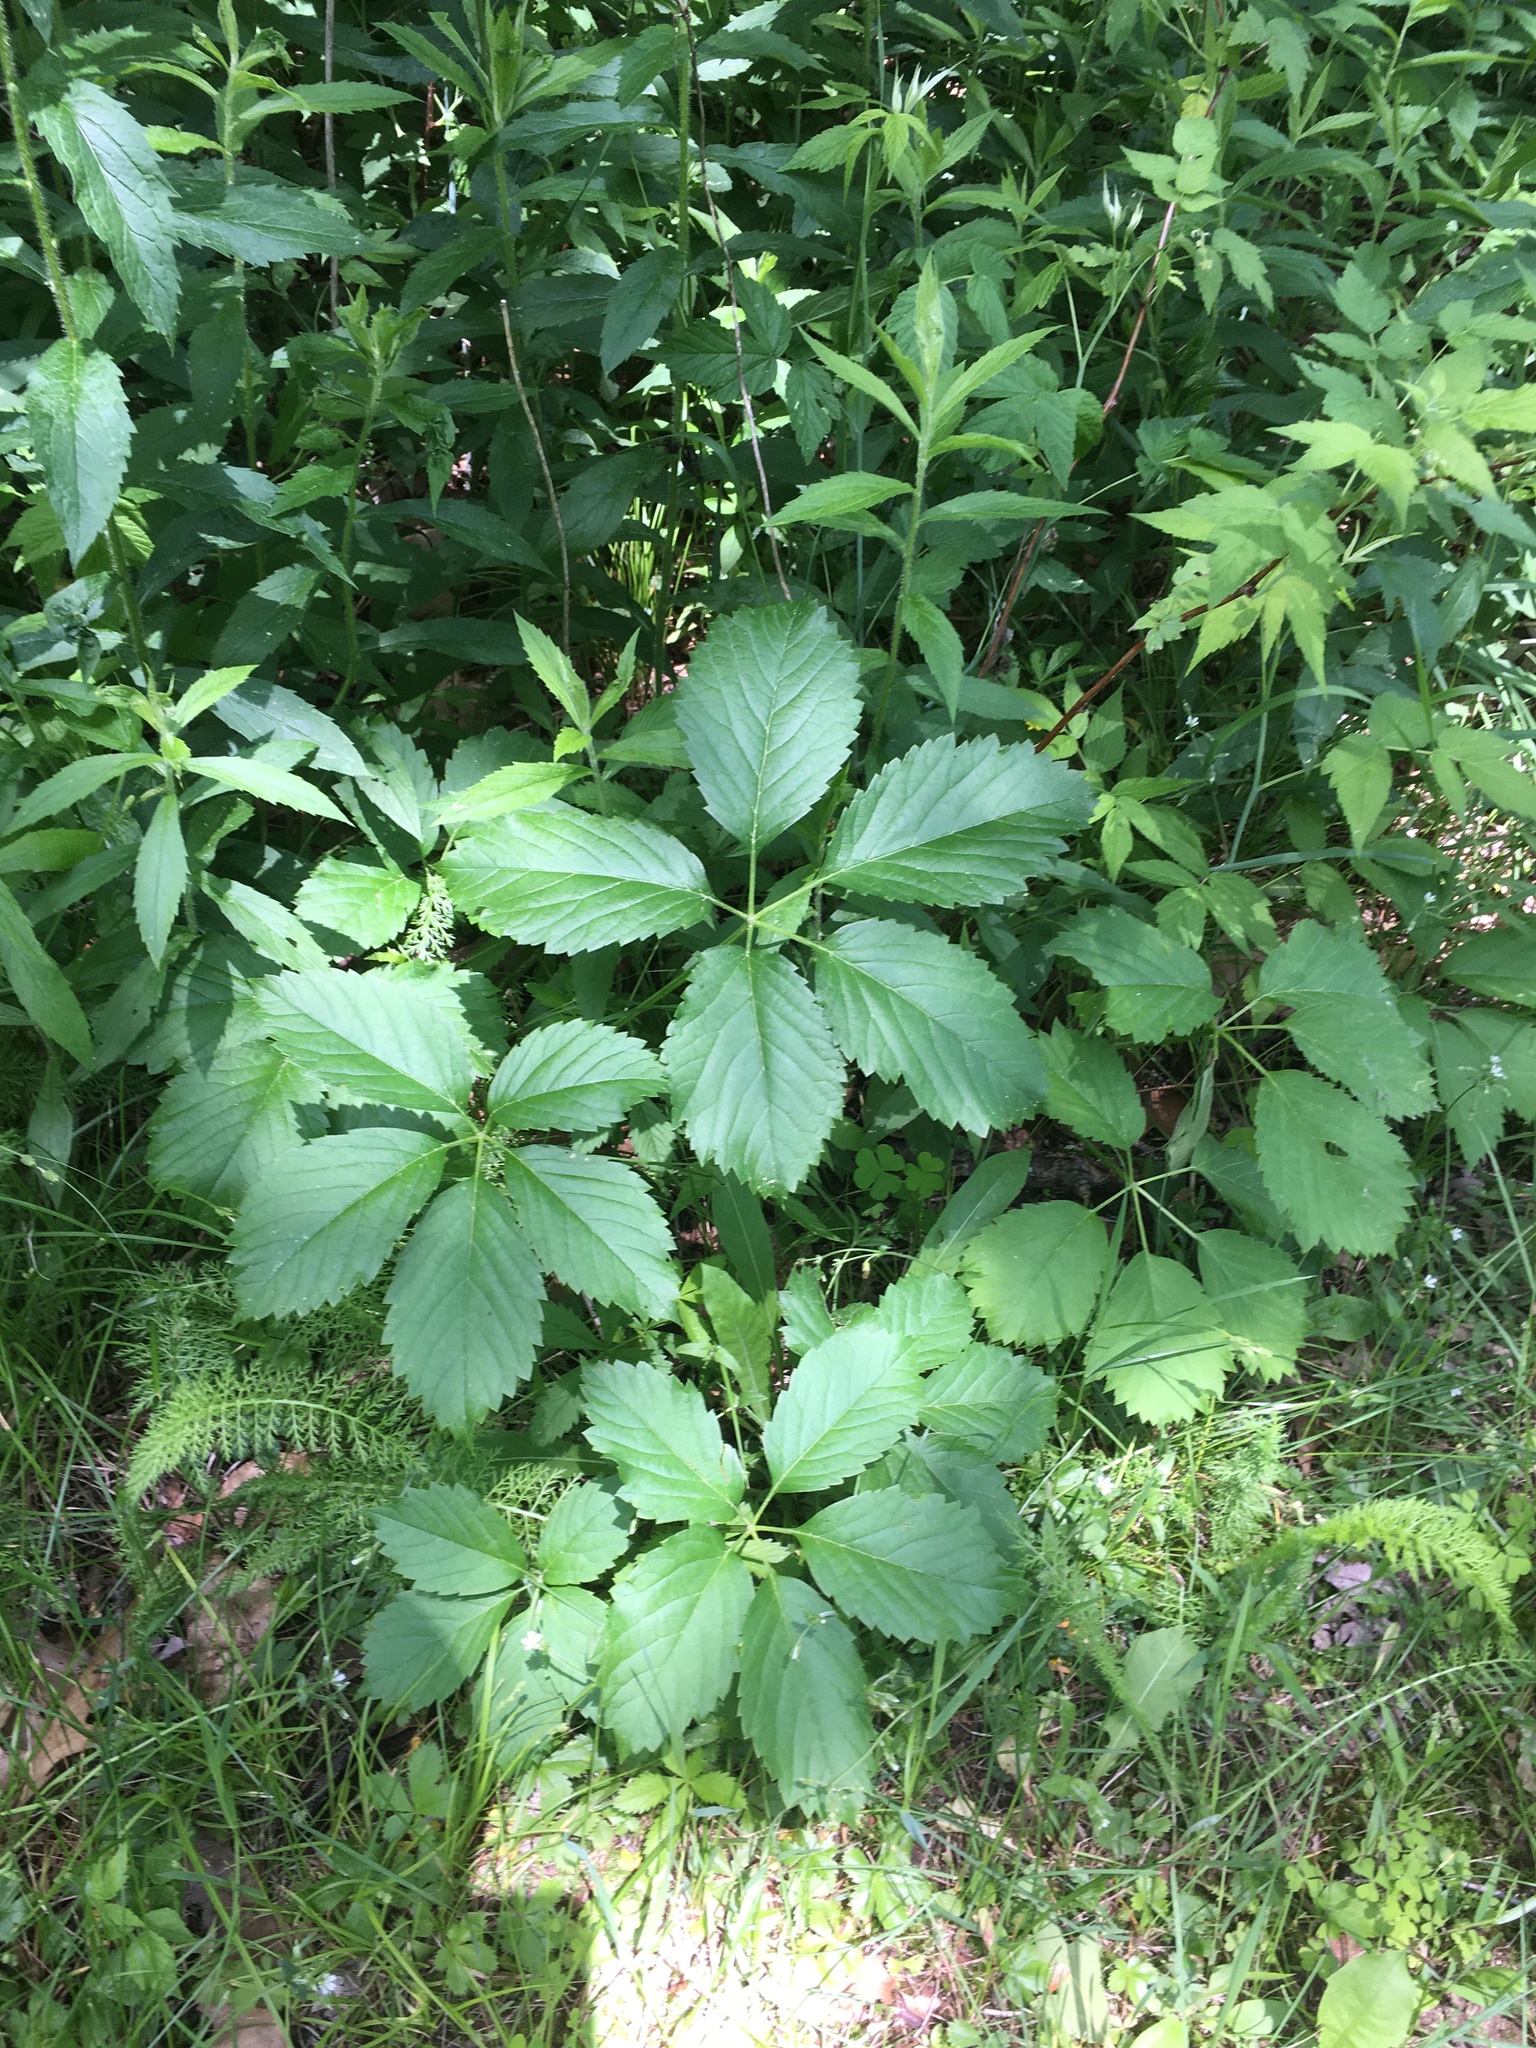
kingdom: Plantae
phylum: Tracheophyta
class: Magnoliopsida
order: Vitales
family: Vitaceae
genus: Parthenocissus
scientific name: Parthenocissus inserta
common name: False virginia-creeper
